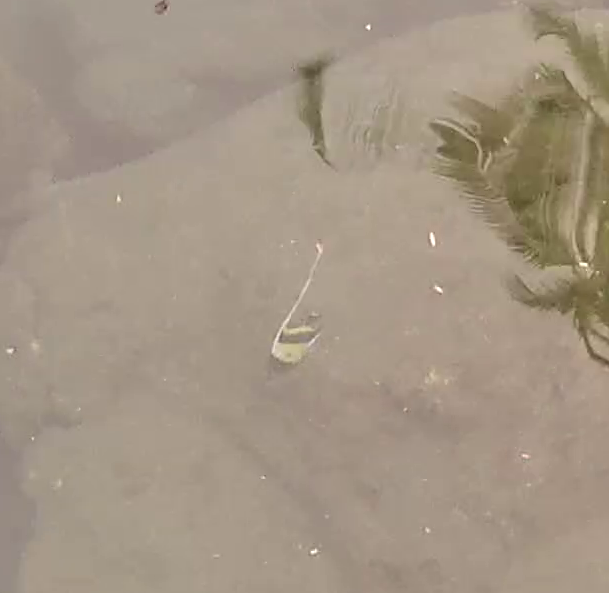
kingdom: Animalia
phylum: Chordata
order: Perciformes
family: Zanclidae
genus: Zanclus
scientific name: Zanclus cornutus
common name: Moorish idol
